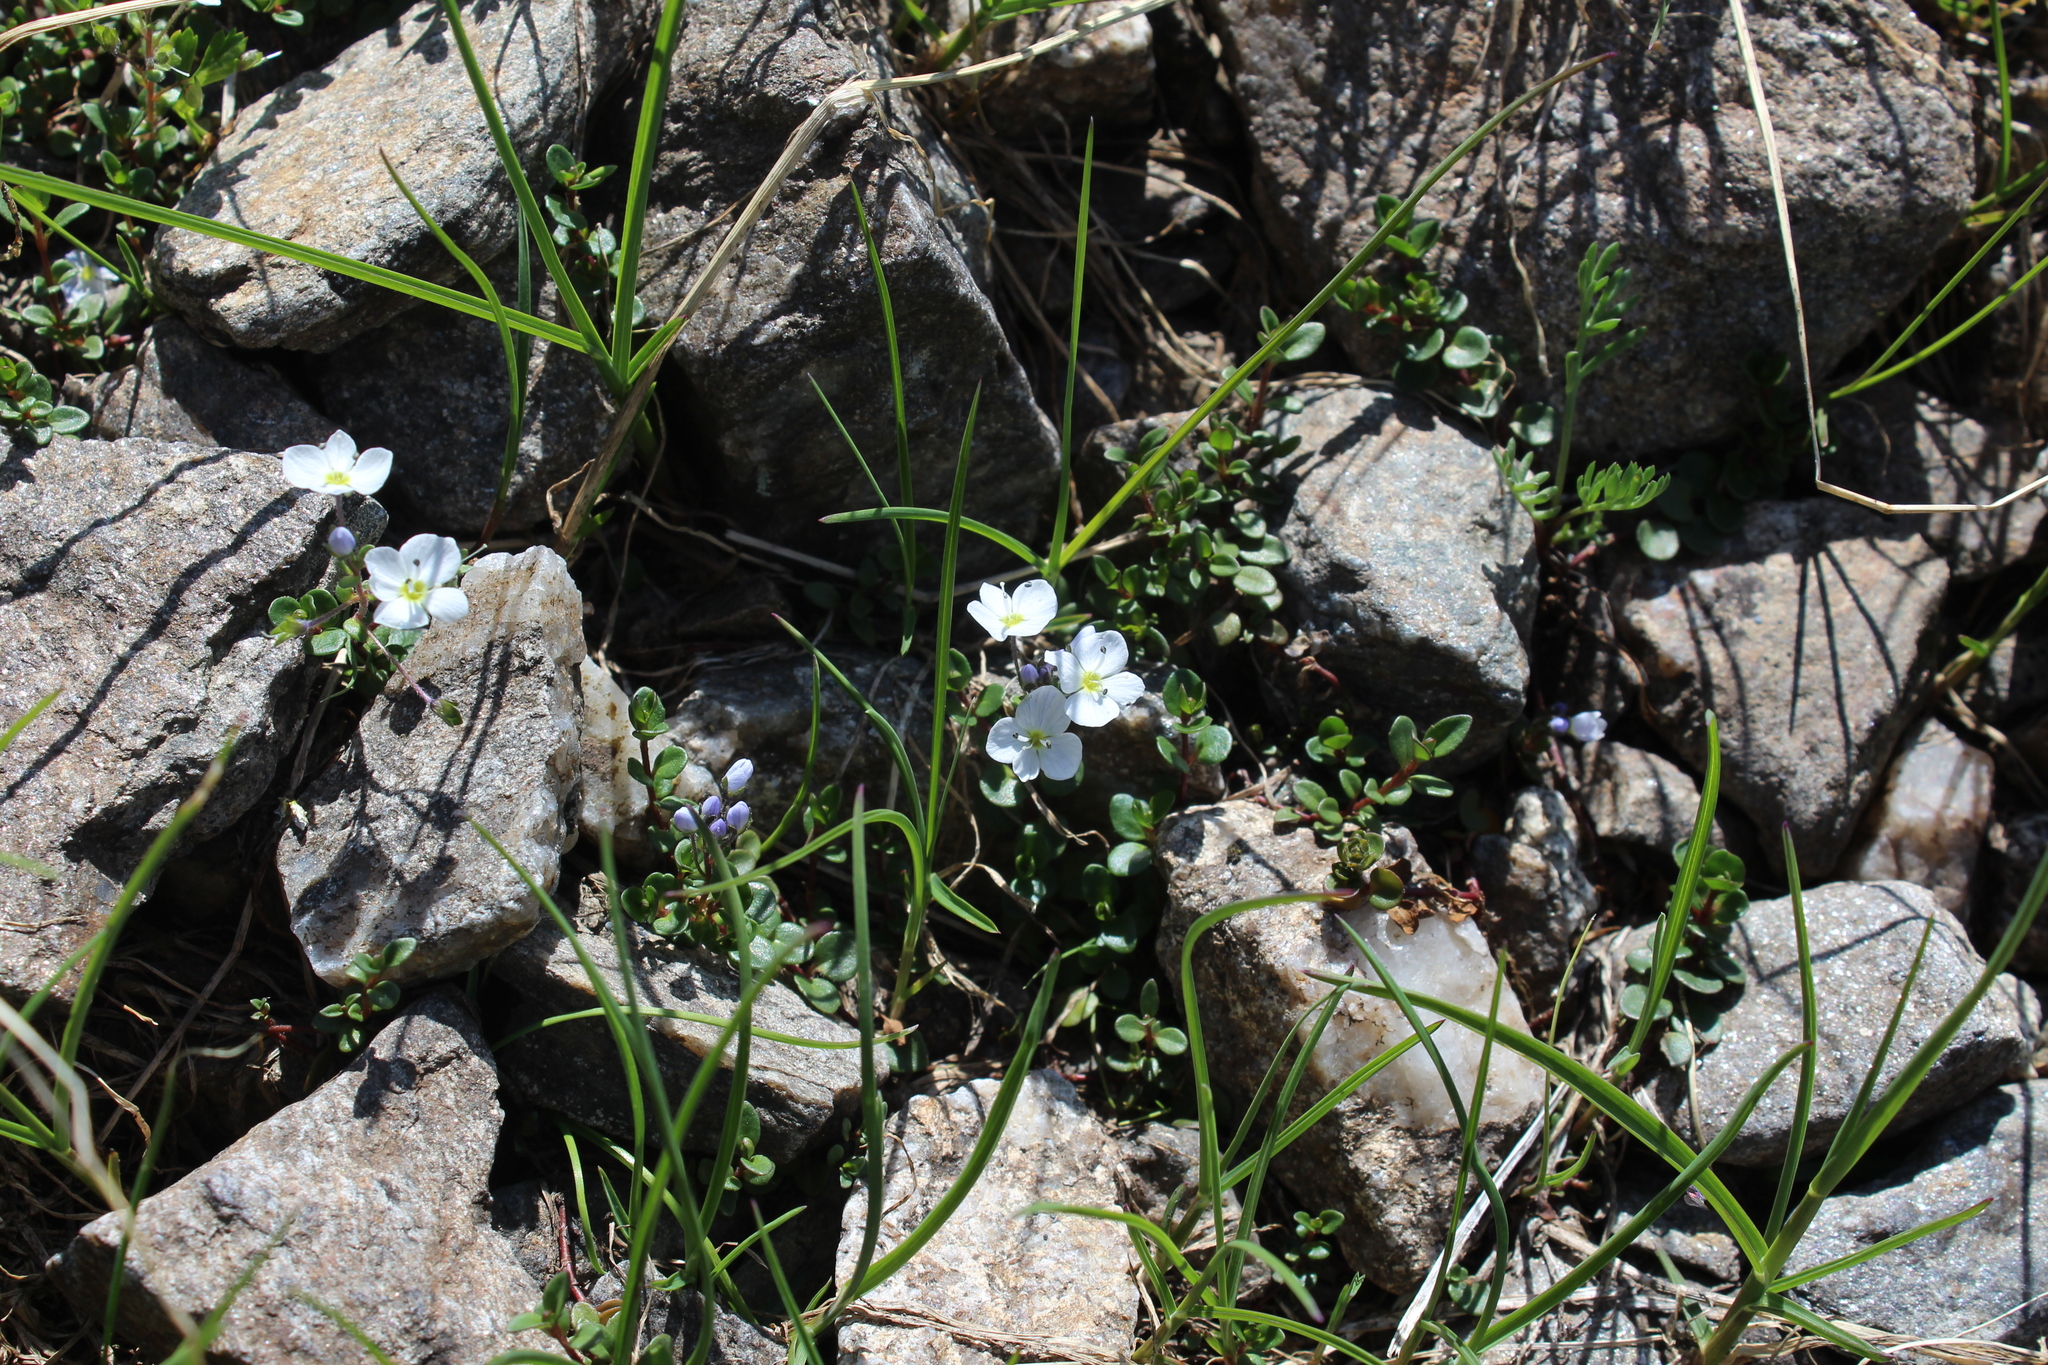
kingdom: Plantae
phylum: Tracheophyta
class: Magnoliopsida
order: Lamiales
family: Plantaginaceae
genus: Veronica
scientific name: Veronica telephiifolia
